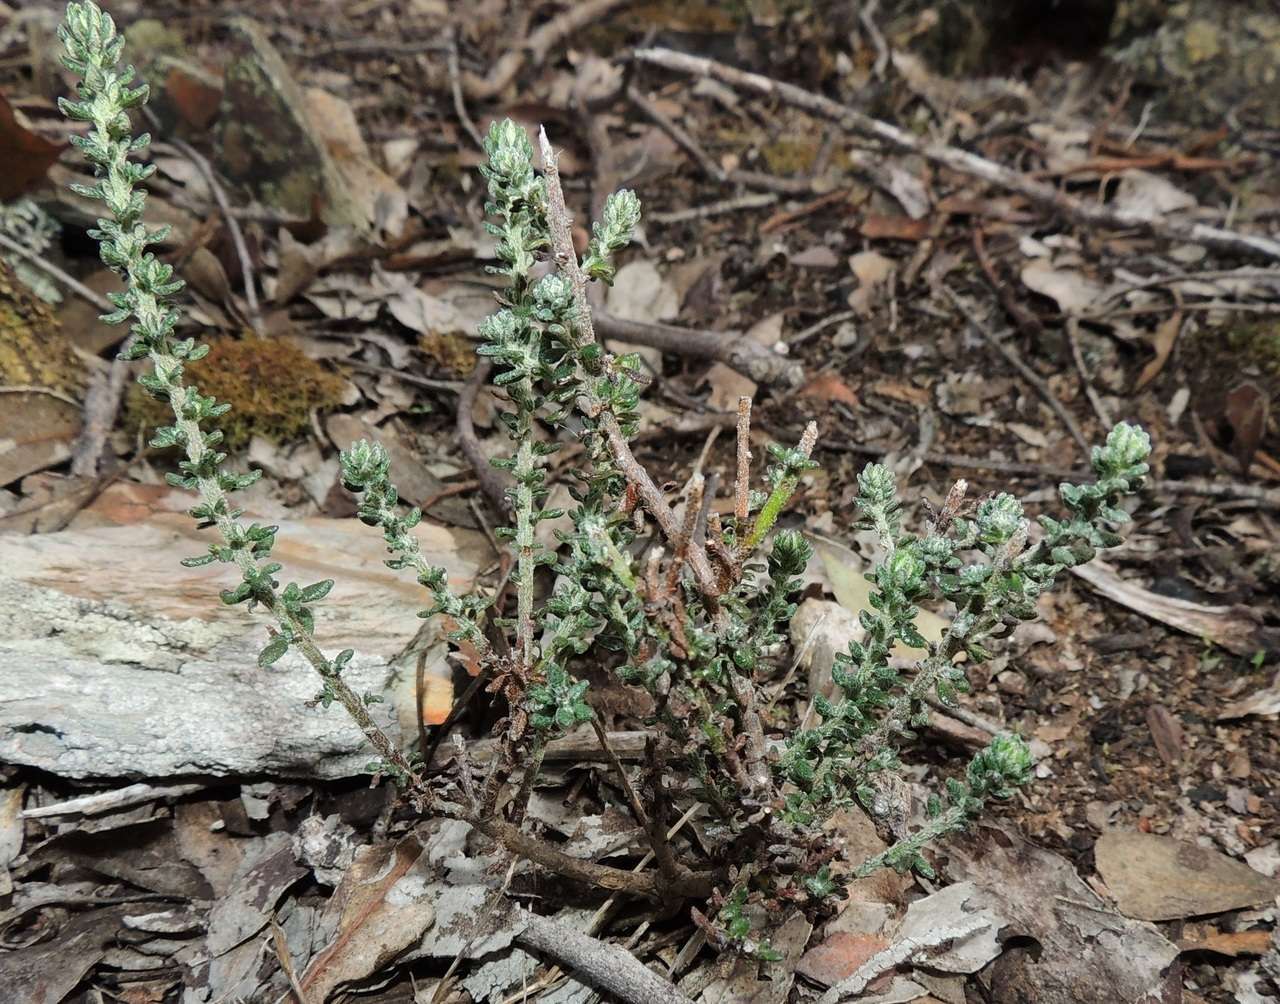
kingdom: Plantae
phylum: Tracheophyta
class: Magnoliopsida
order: Asterales
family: Asteraceae
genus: Olearia
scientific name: Olearia minor
